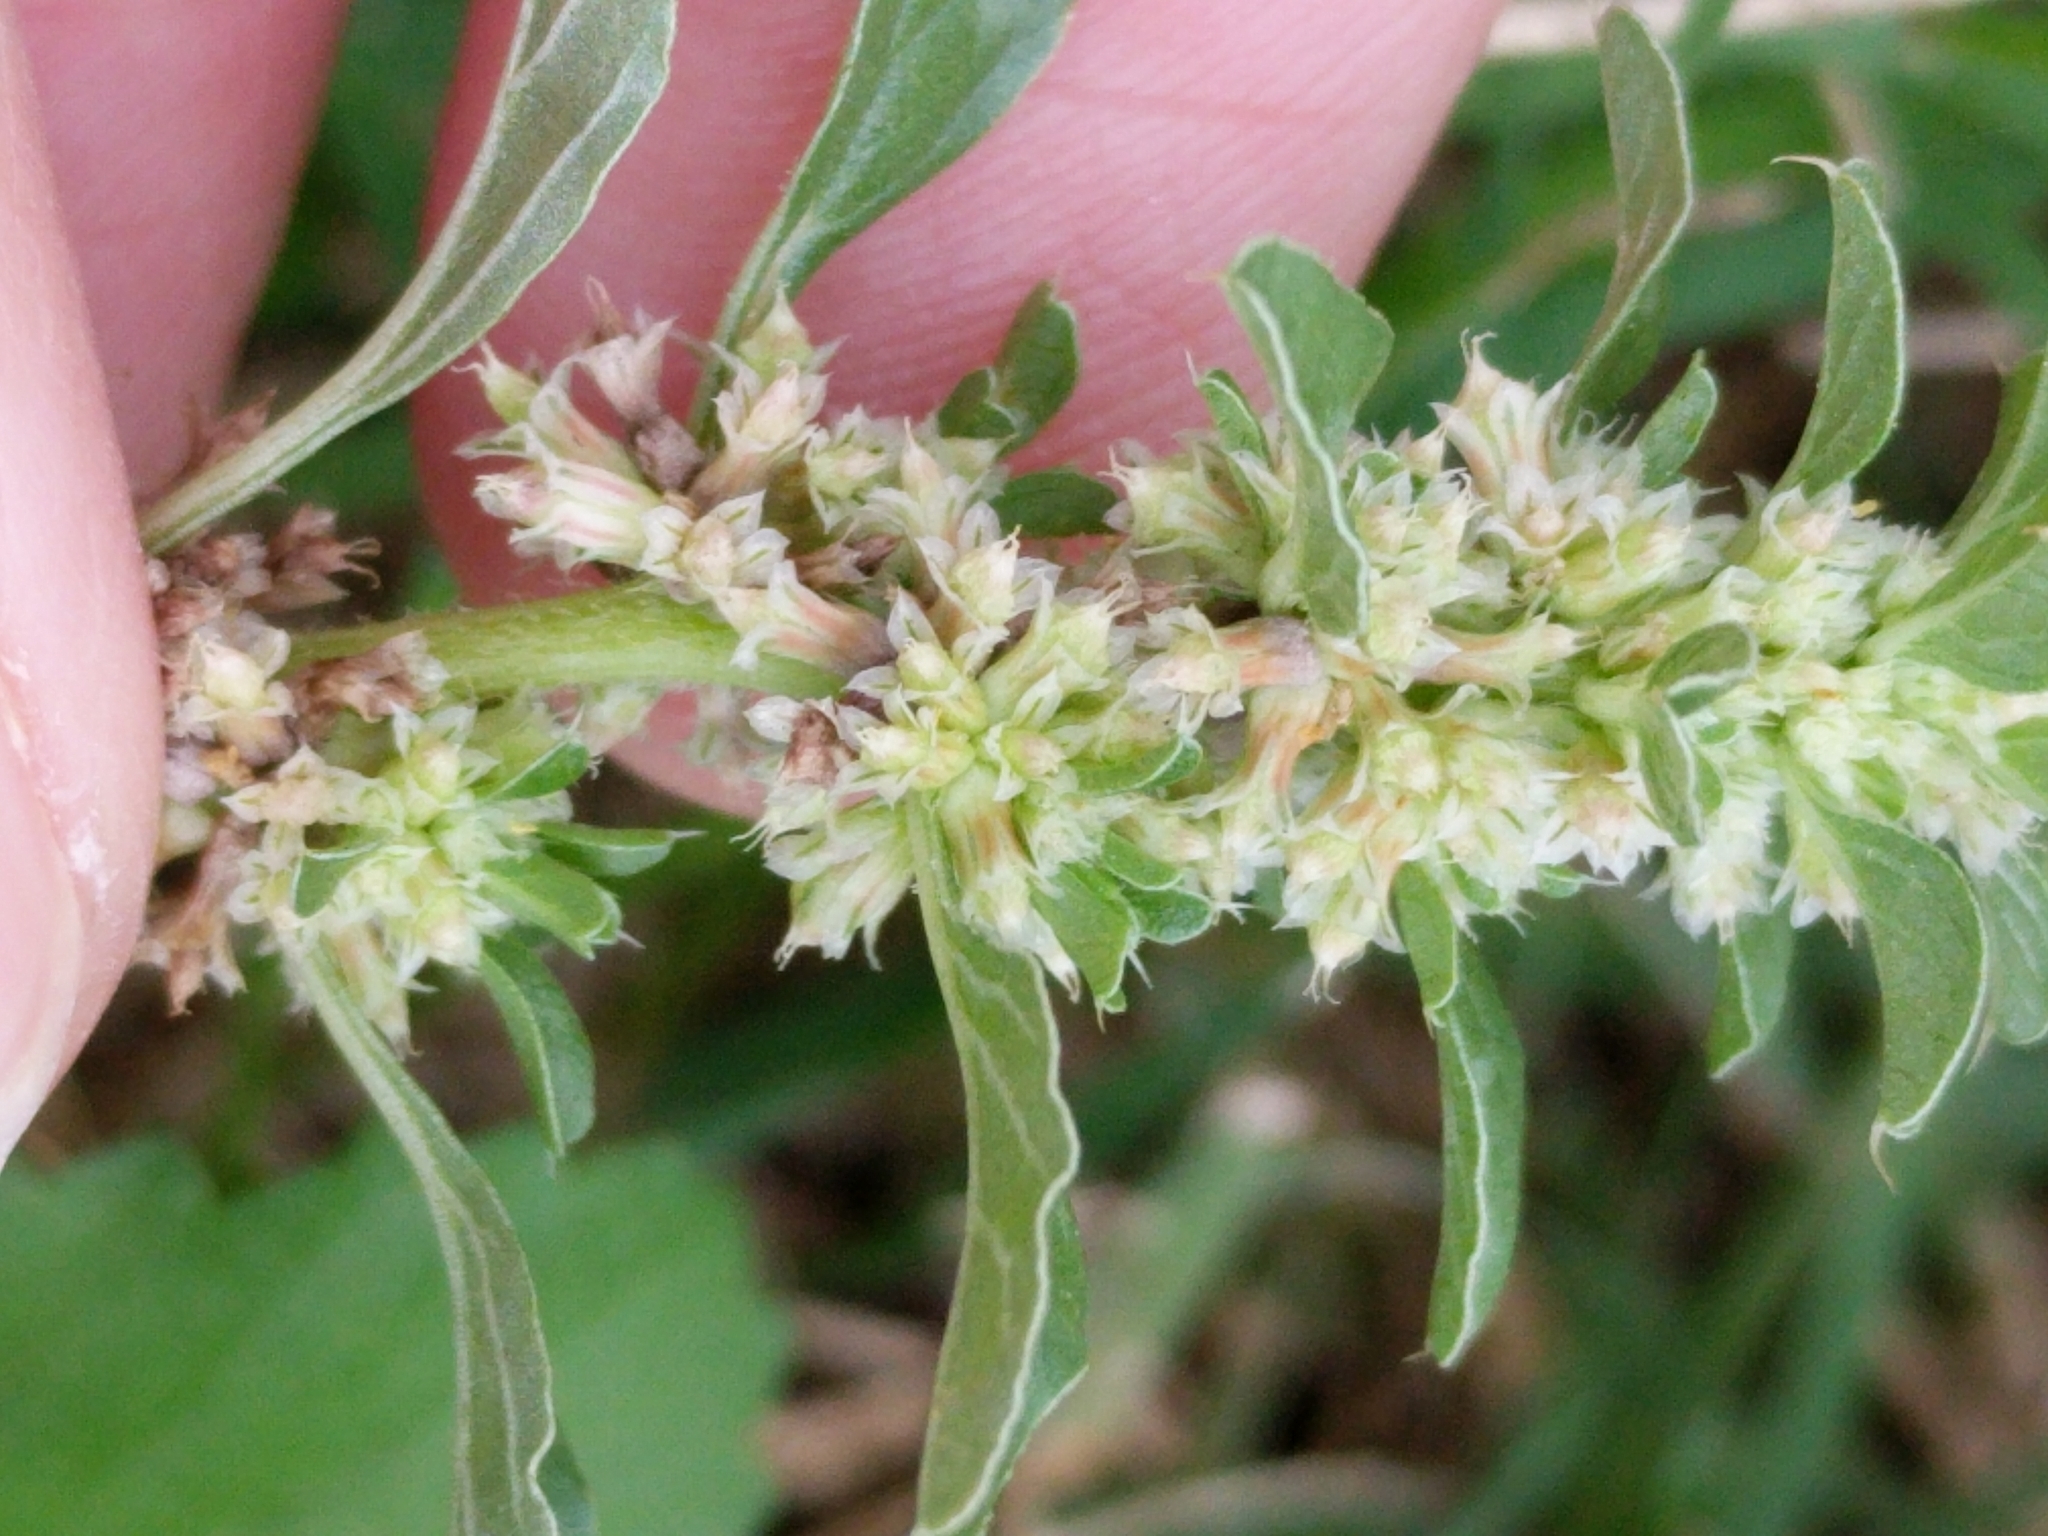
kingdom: Plantae
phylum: Tracheophyta
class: Magnoliopsida
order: Caryophyllales
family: Amaranthaceae
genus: Amaranthus
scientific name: Amaranthus polygonoides
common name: Tropical amaranth
